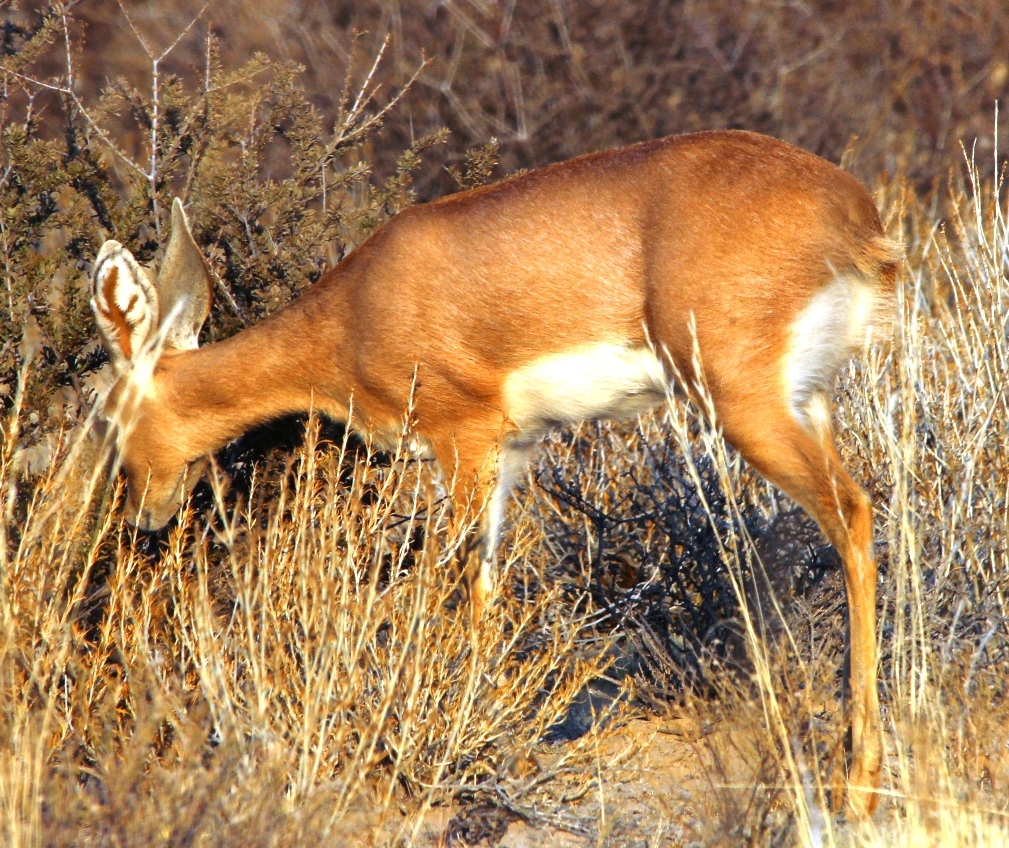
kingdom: Animalia
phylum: Chordata
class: Mammalia
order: Artiodactyla
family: Bovidae
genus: Raphicerus
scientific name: Raphicerus campestris
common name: Steenbok
